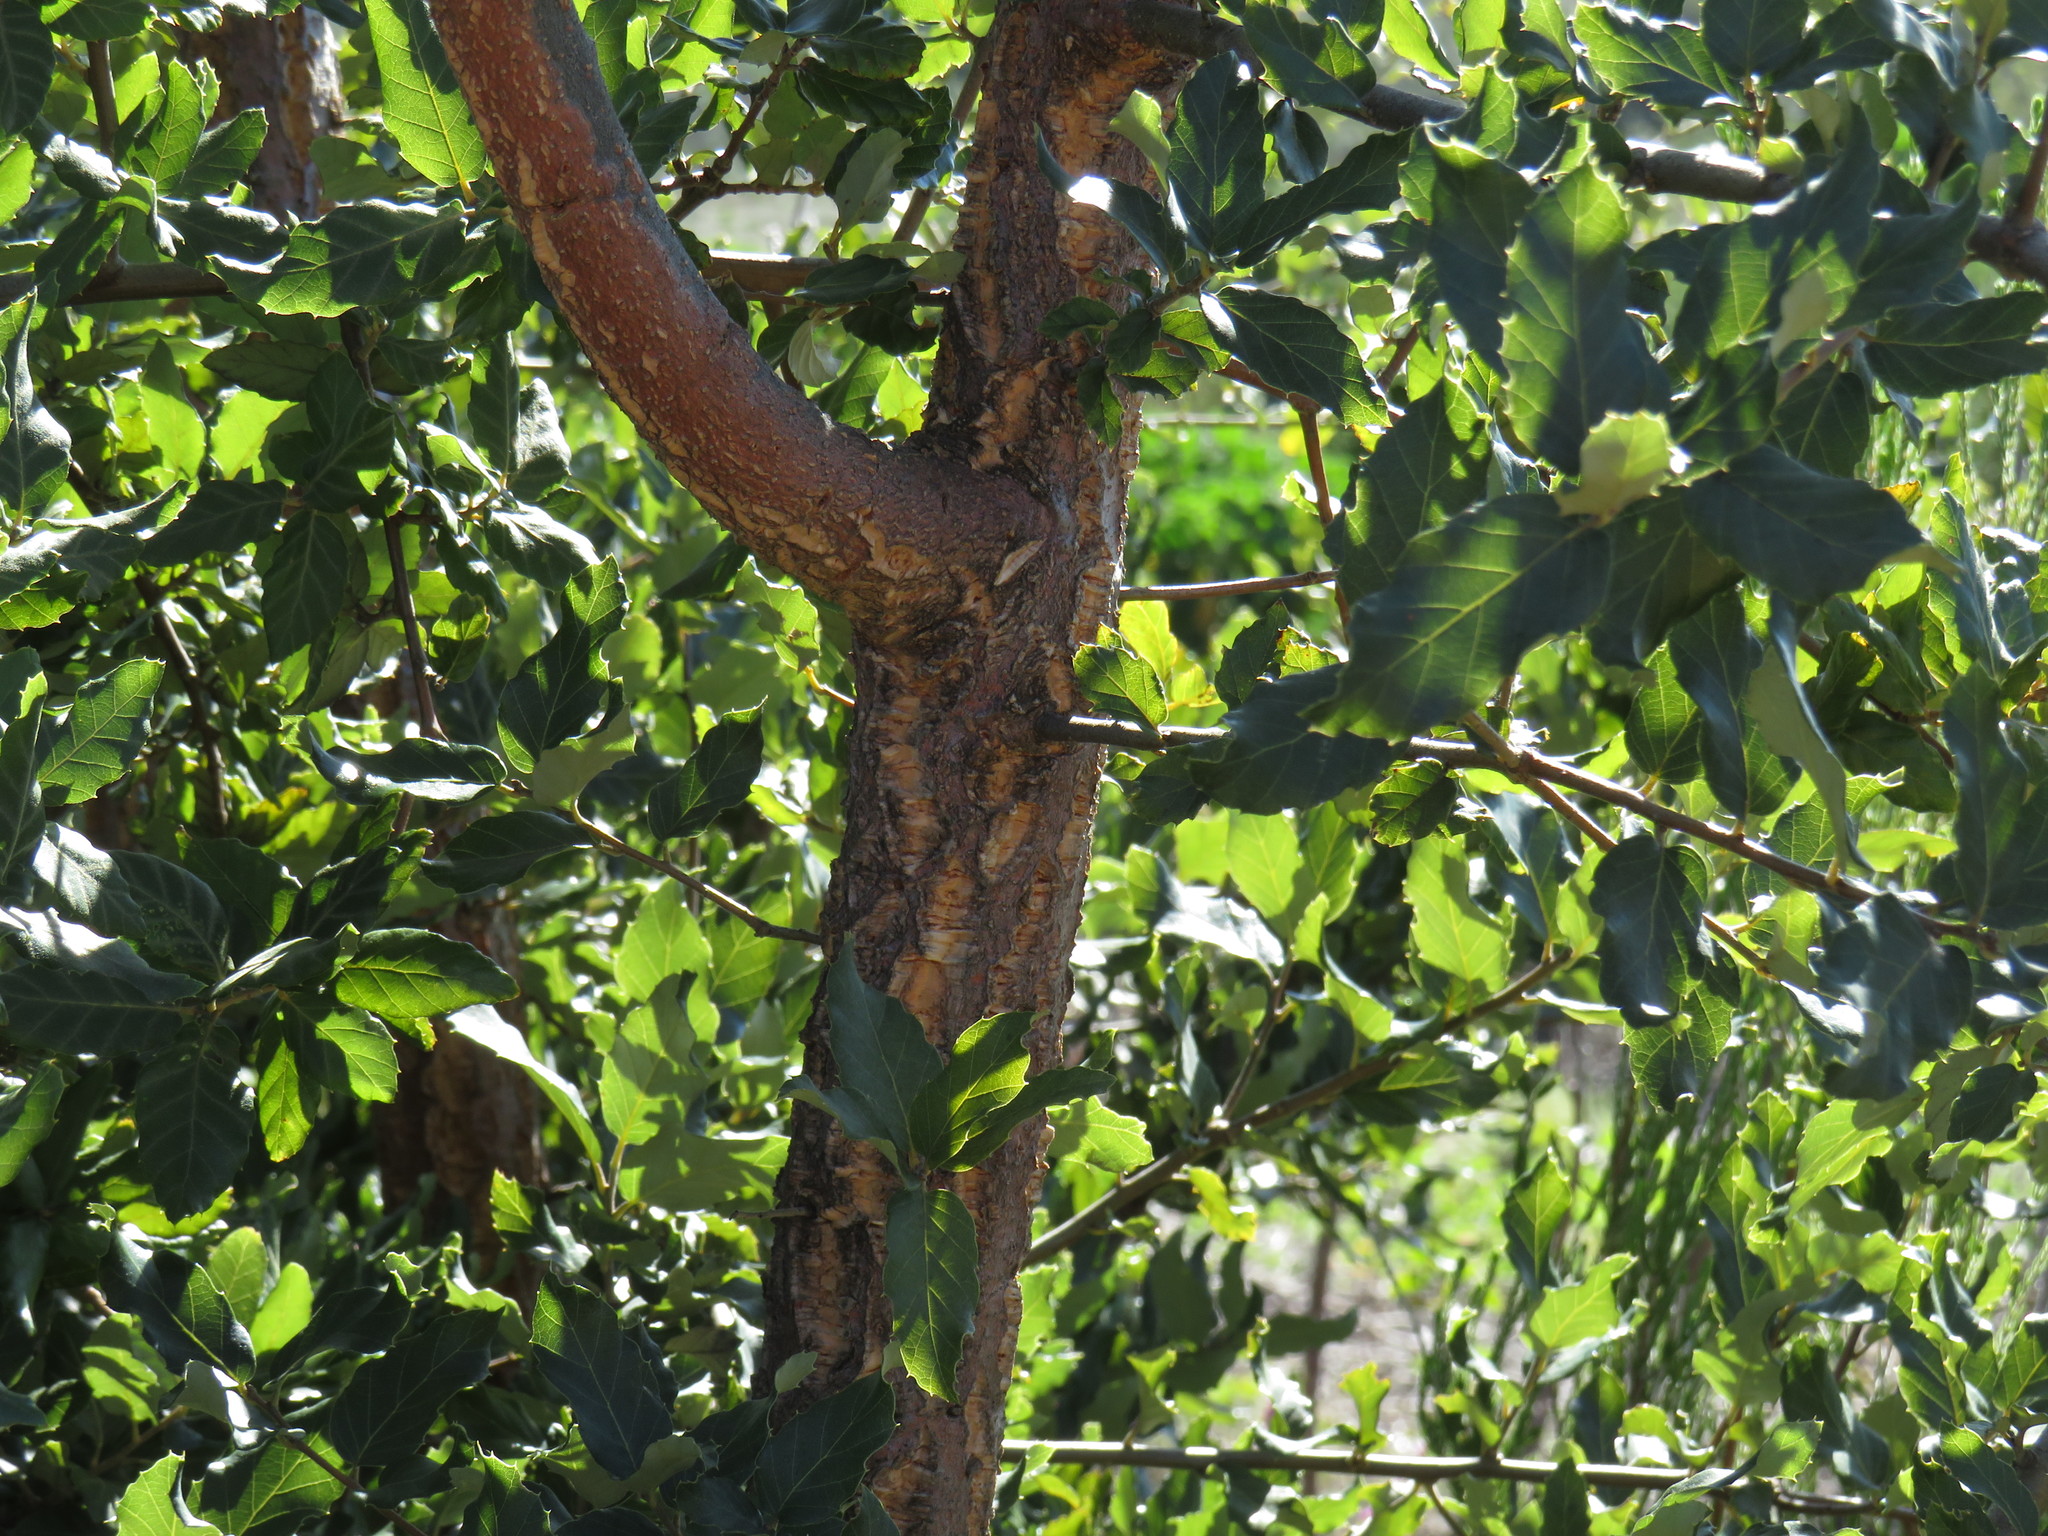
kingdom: Plantae
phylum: Tracheophyta
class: Magnoliopsida
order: Fagales
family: Fagaceae
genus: Quercus
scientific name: Quercus suber
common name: Cork oak
